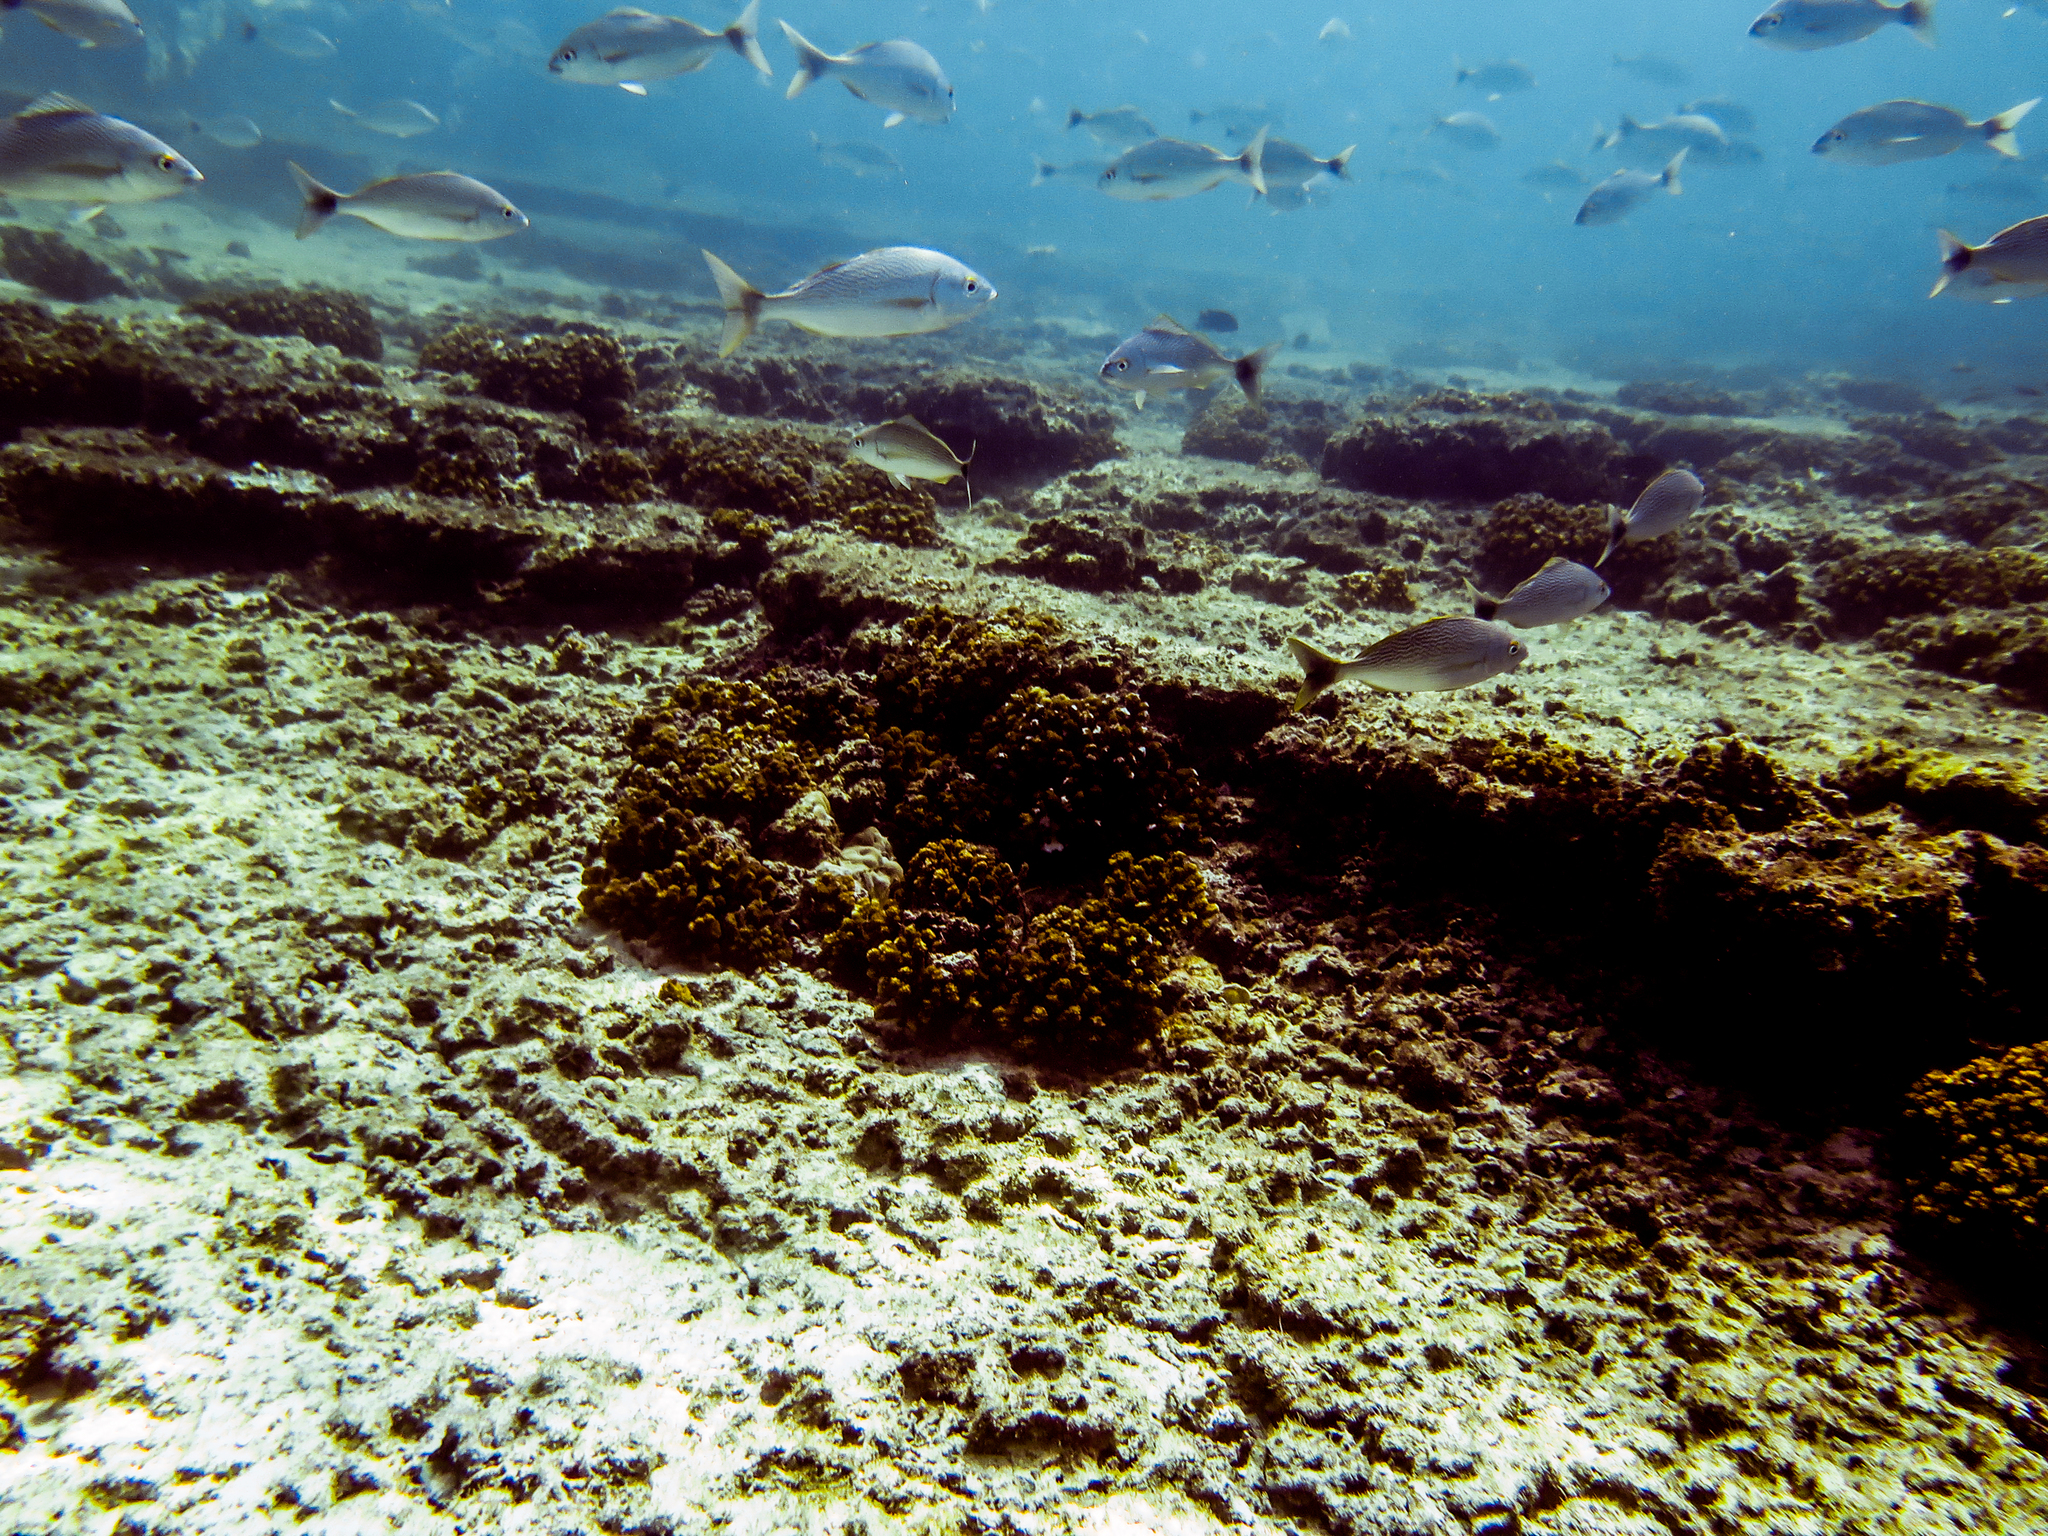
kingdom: Animalia
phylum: Chordata
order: Perciformes
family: Haemulidae
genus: Microlepidotus
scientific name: Microlepidotus brevipinnis
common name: Brassy grunt
